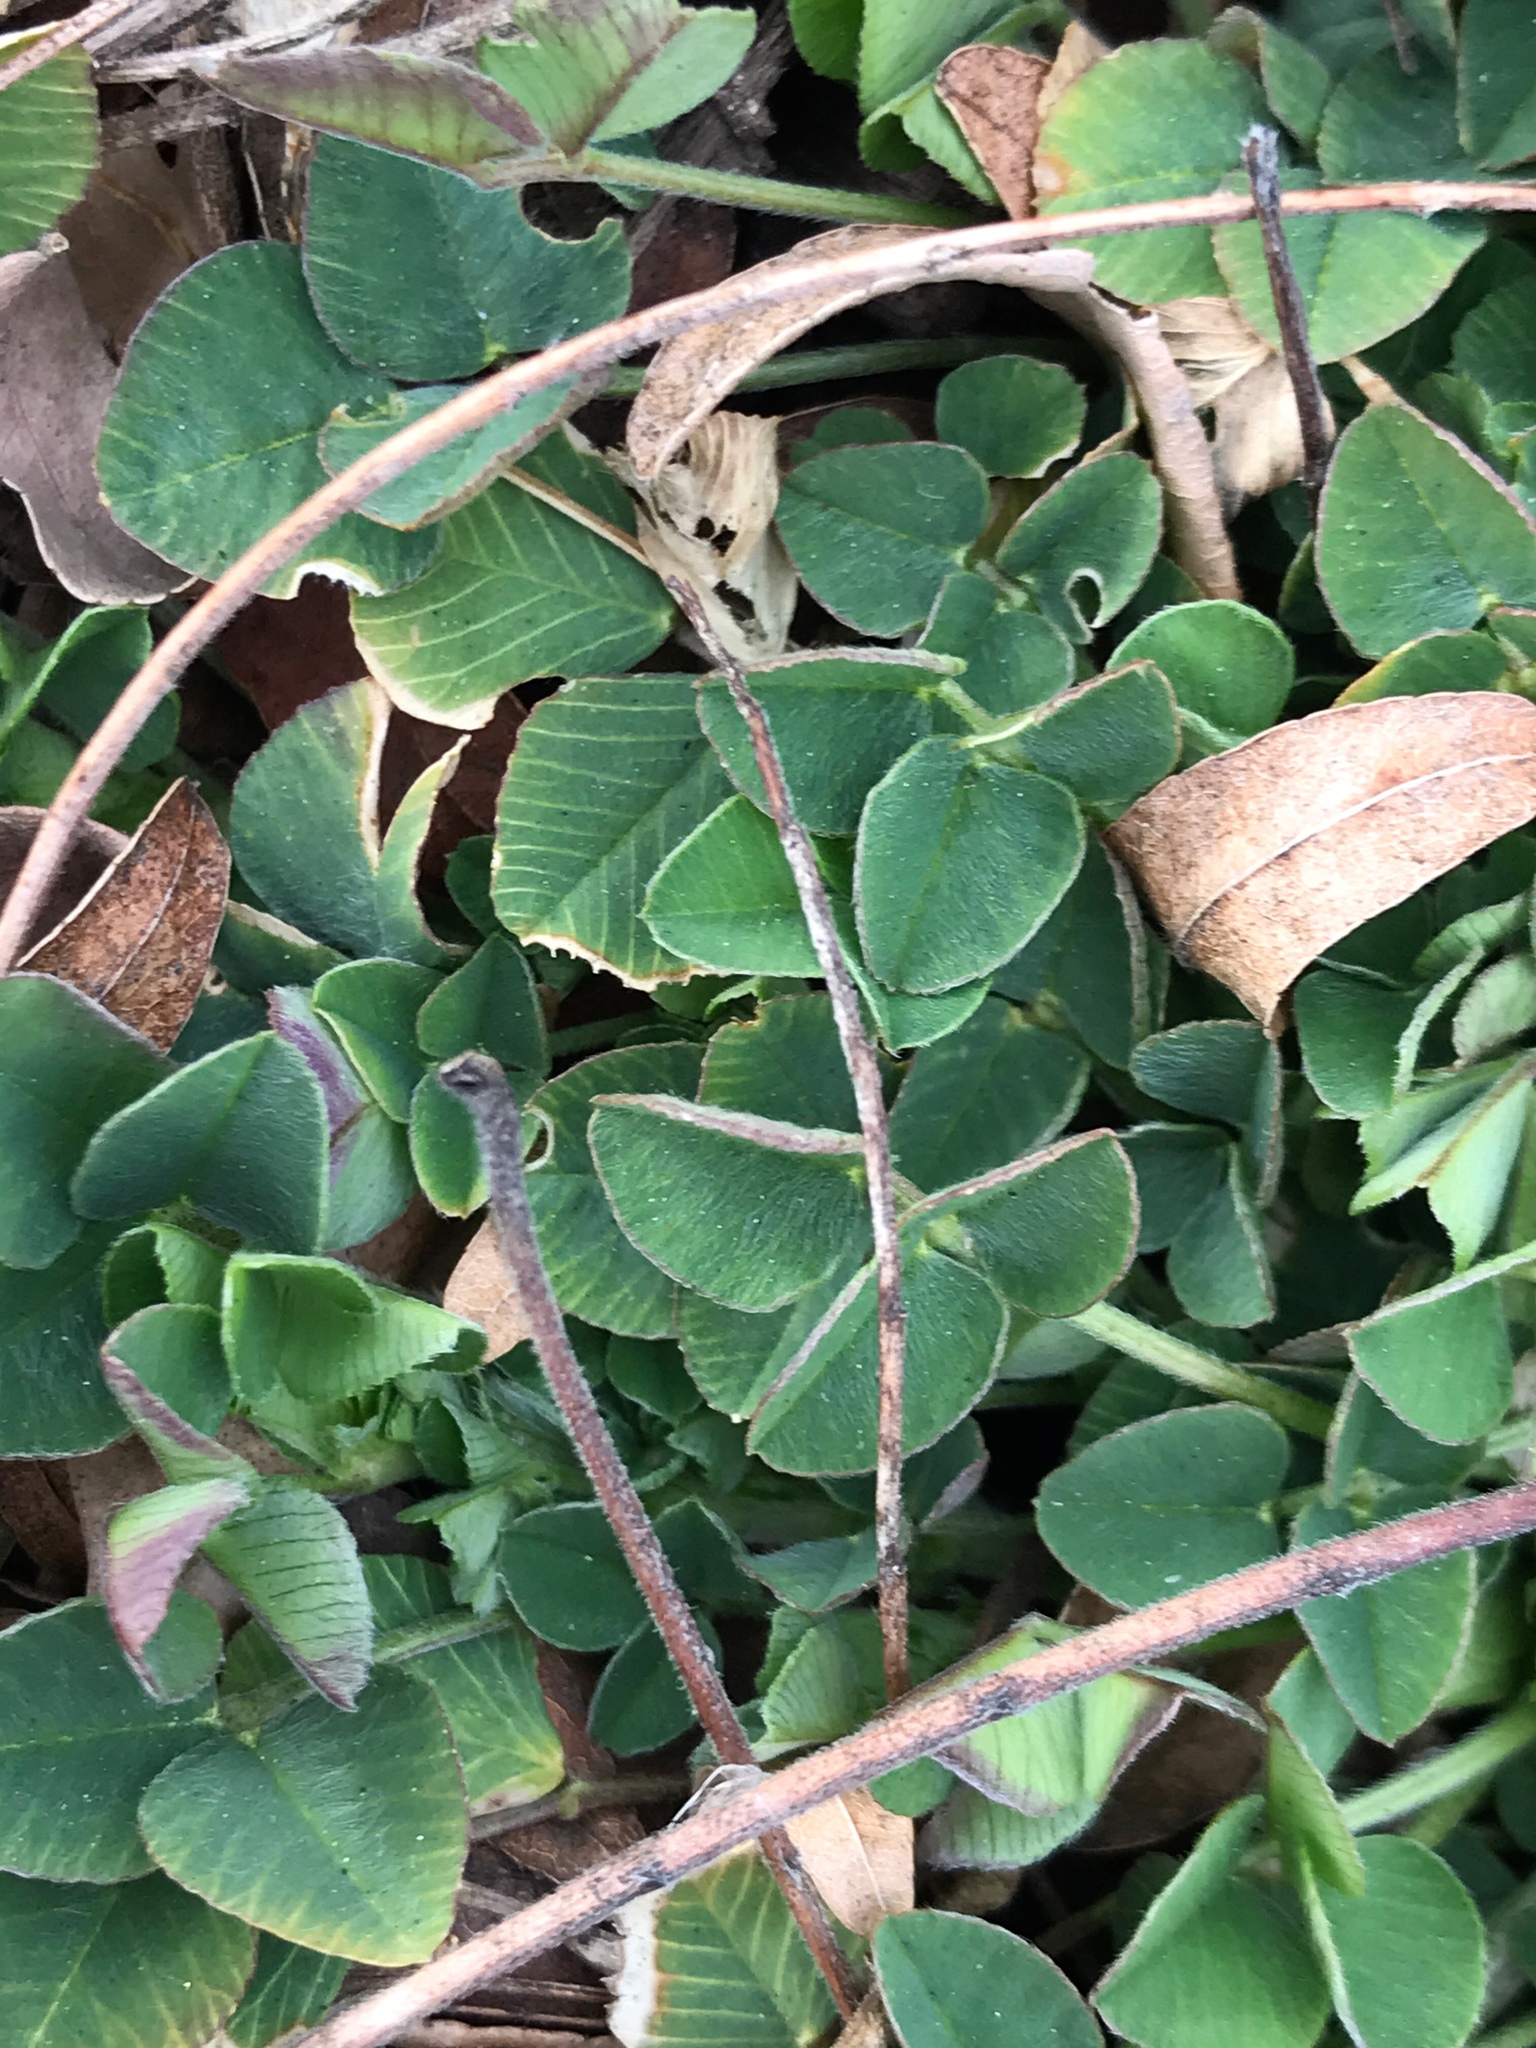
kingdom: Plantae
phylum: Tracheophyta
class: Magnoliopsida
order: Fabales
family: Fabaceae
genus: Medicago
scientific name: Medicago lupulina
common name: Black medick
